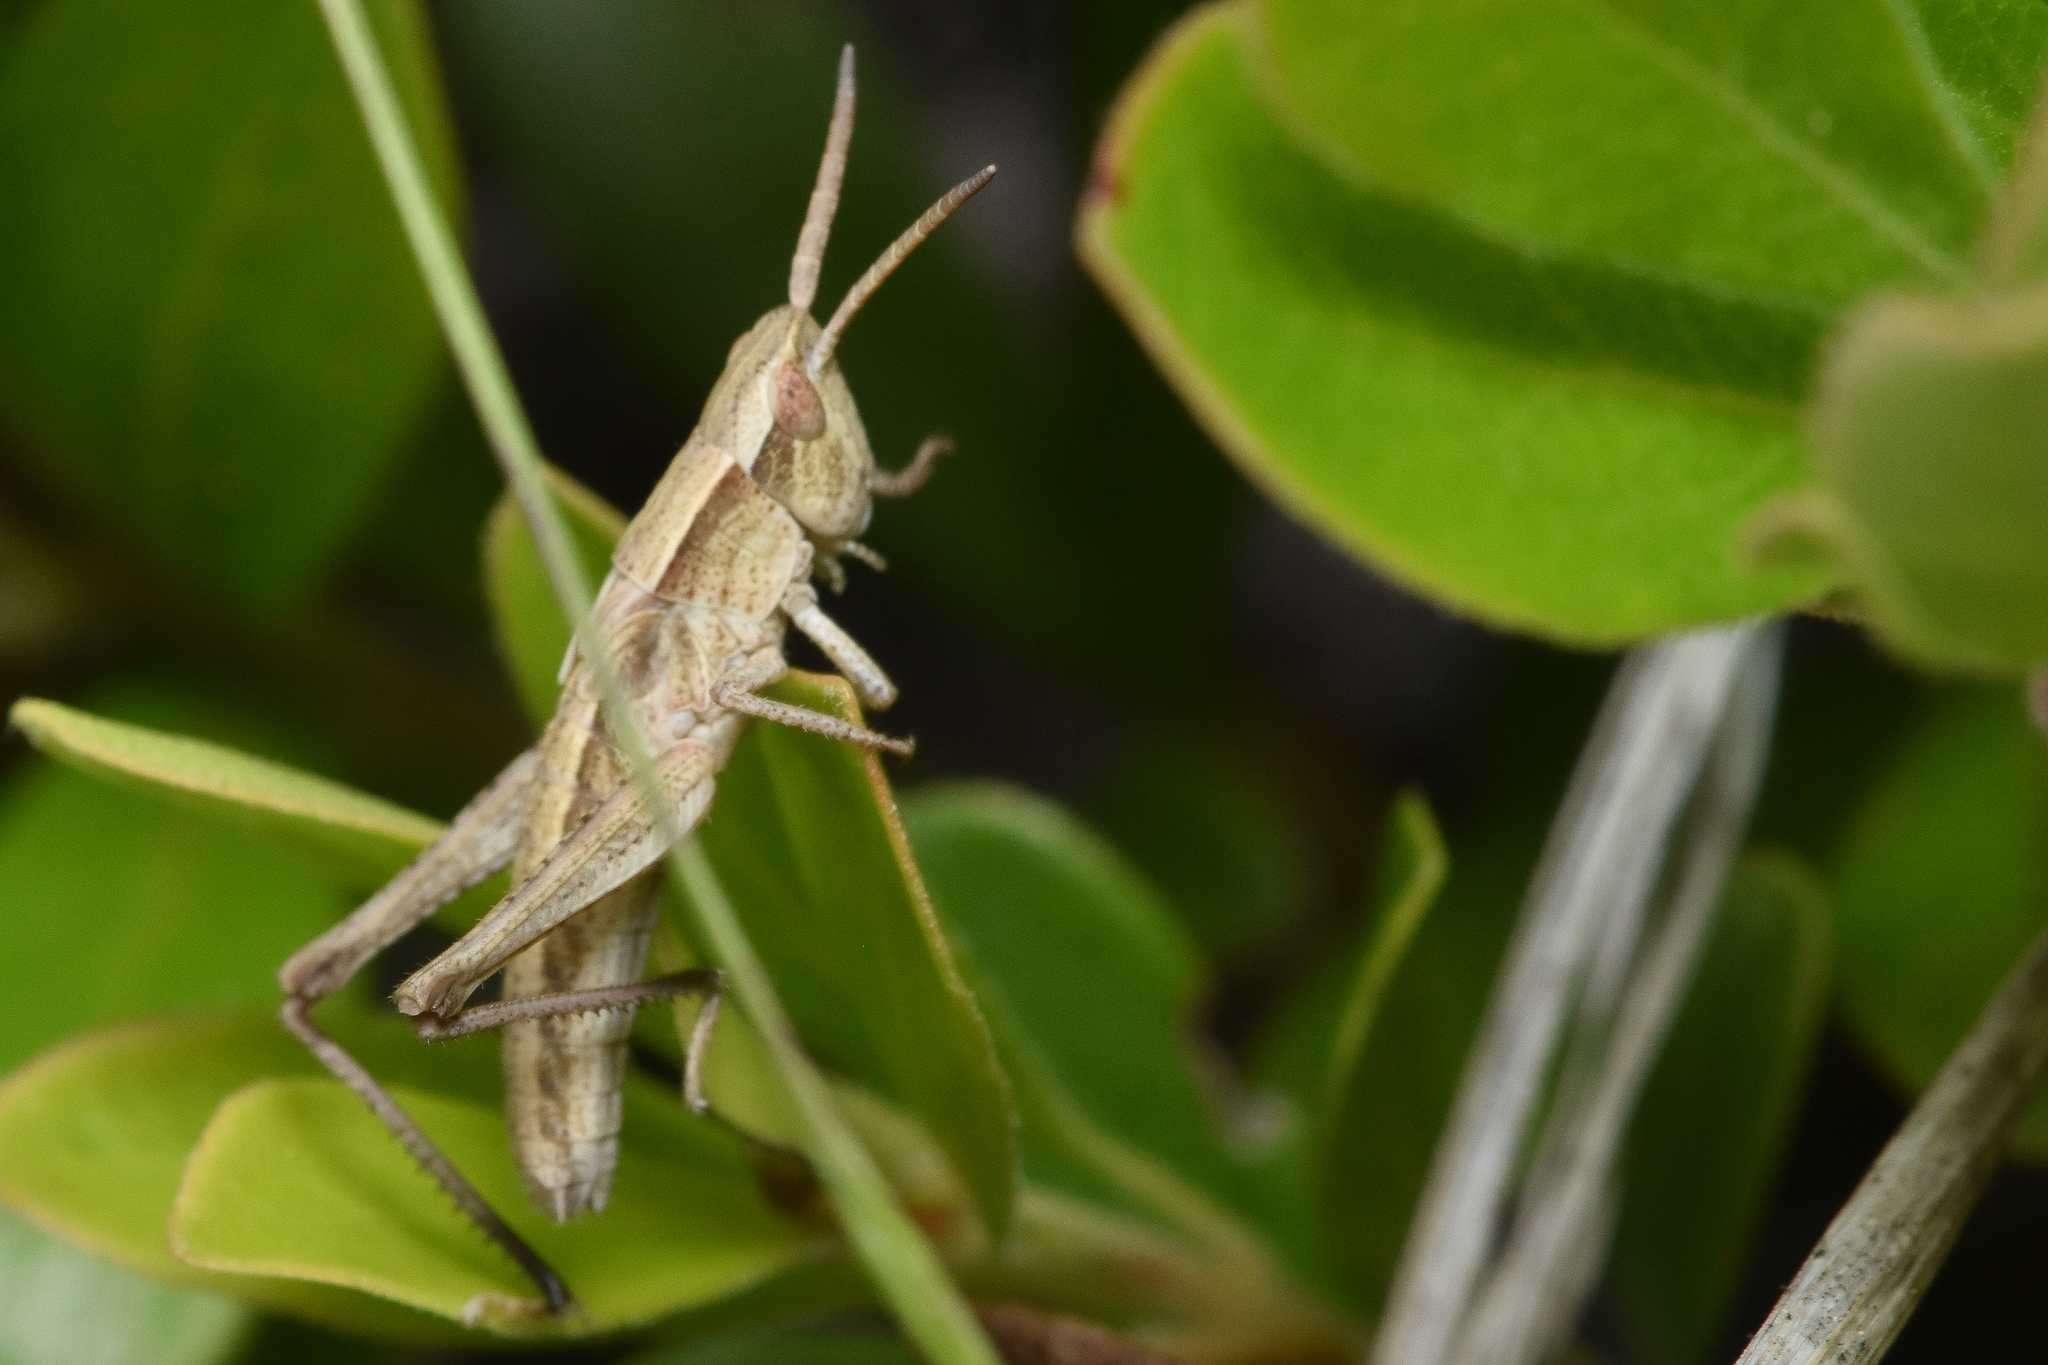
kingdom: Animalia
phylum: Arthropoda
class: Insecta
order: Orthoptera
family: Acrididae
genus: Chloealtis
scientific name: Chloealtis abdominalis
